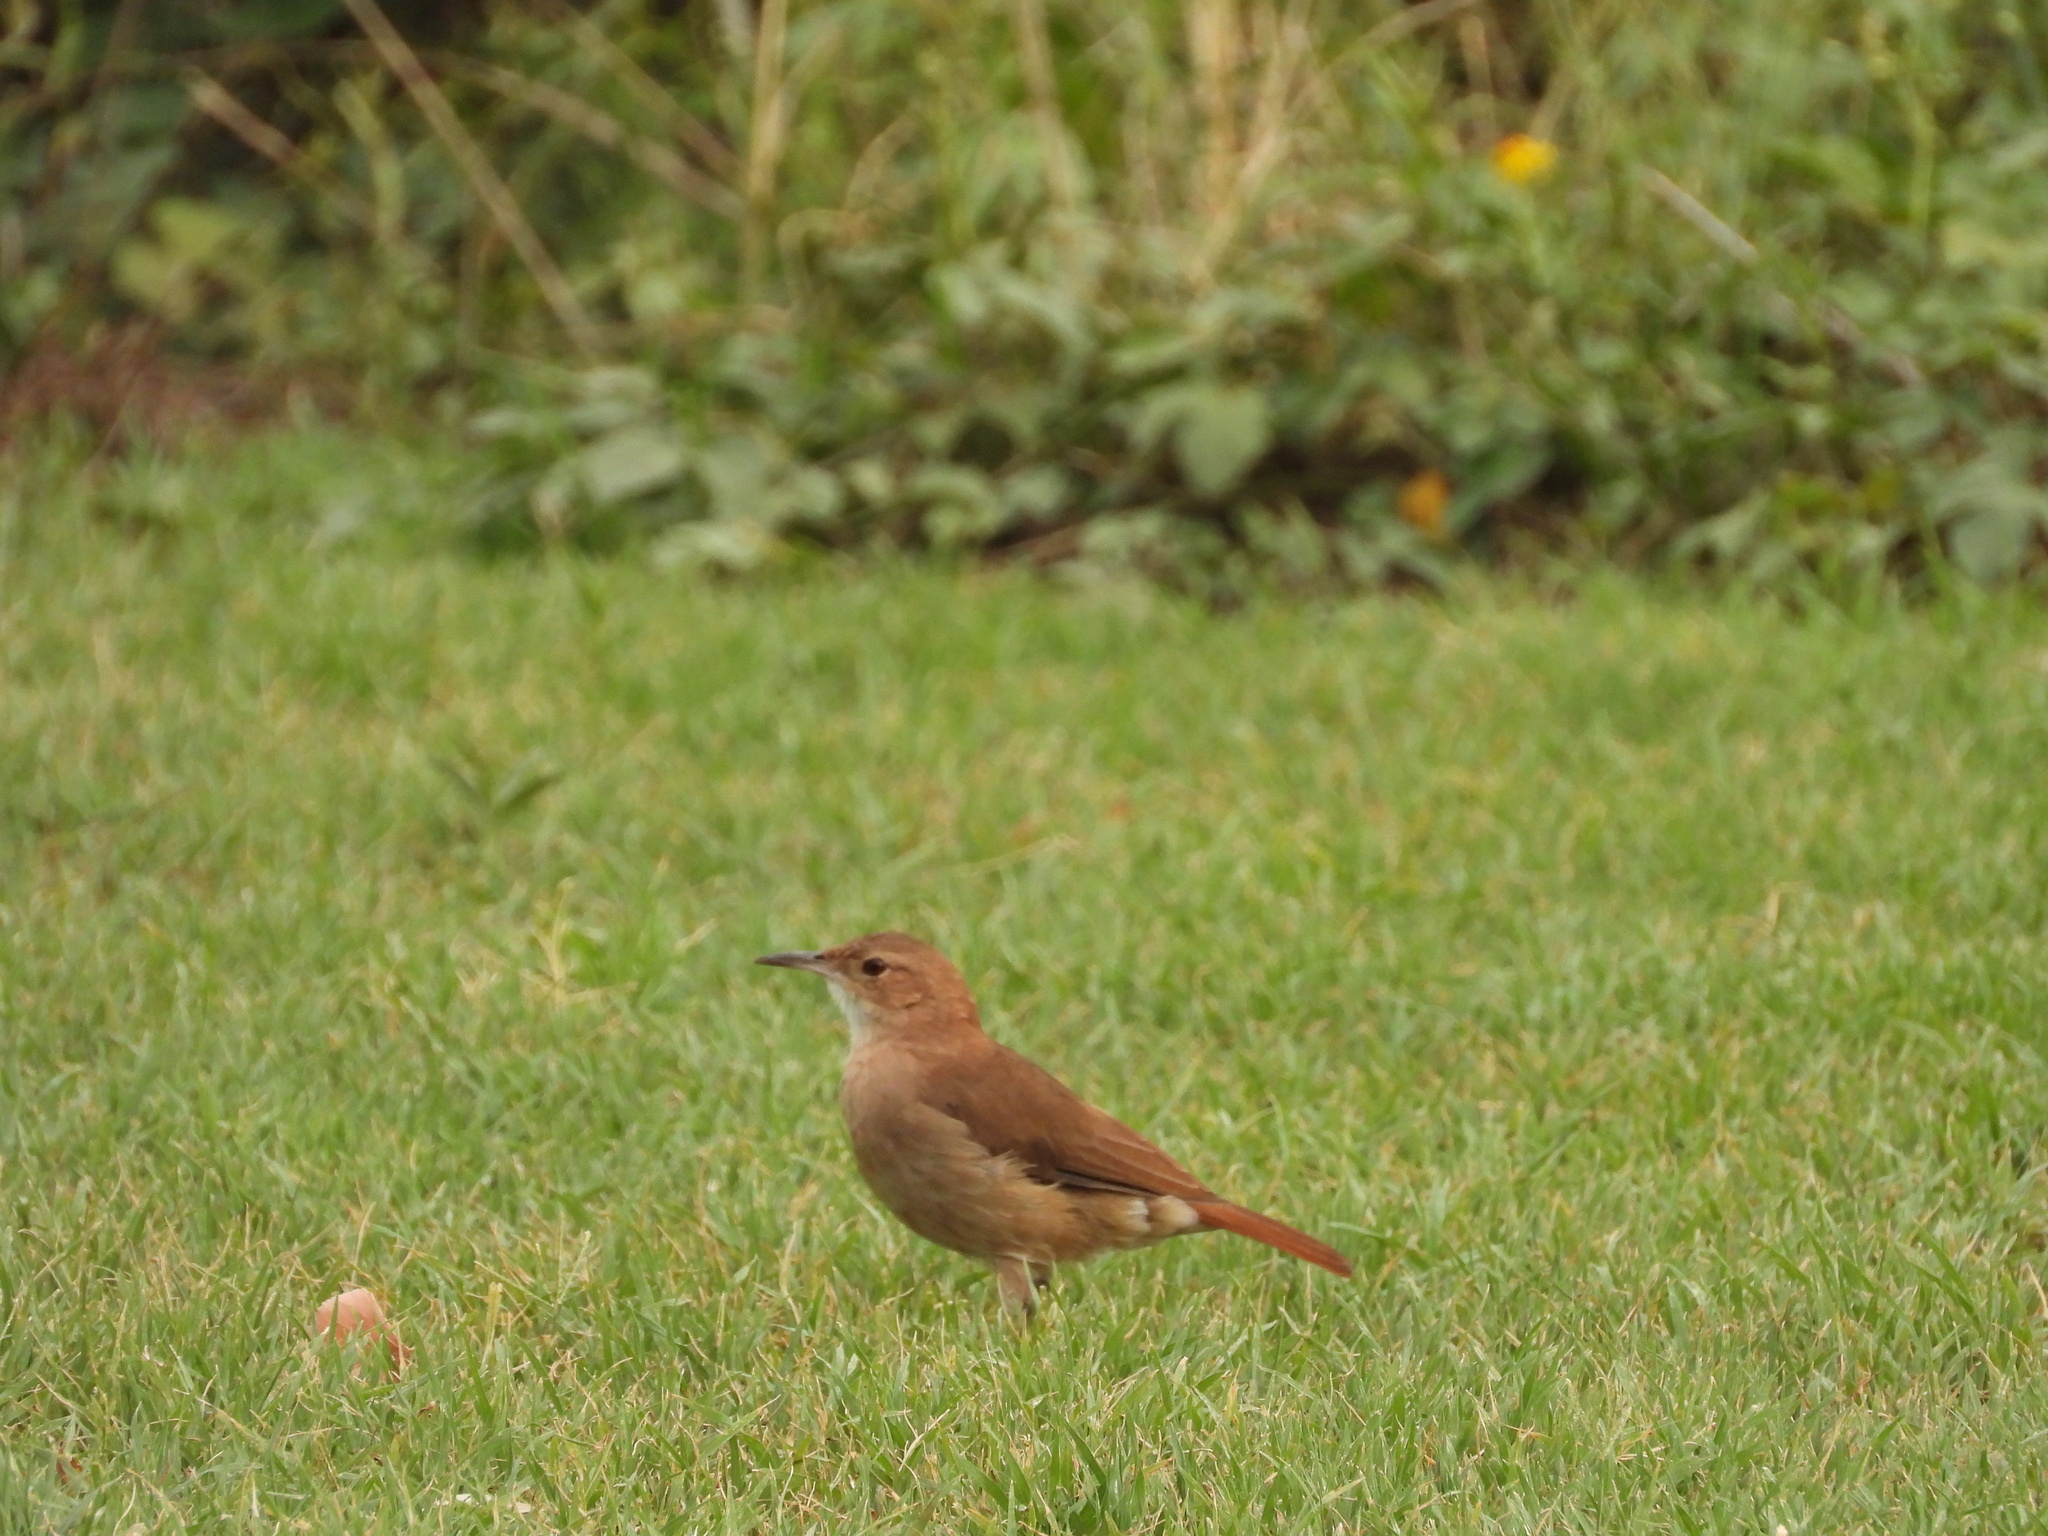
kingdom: Animalia
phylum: Chordata
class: Aves
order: Passeriformes
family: Furnariidae
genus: Furnarius
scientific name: Furnarius rufus
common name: Rufous hornero
